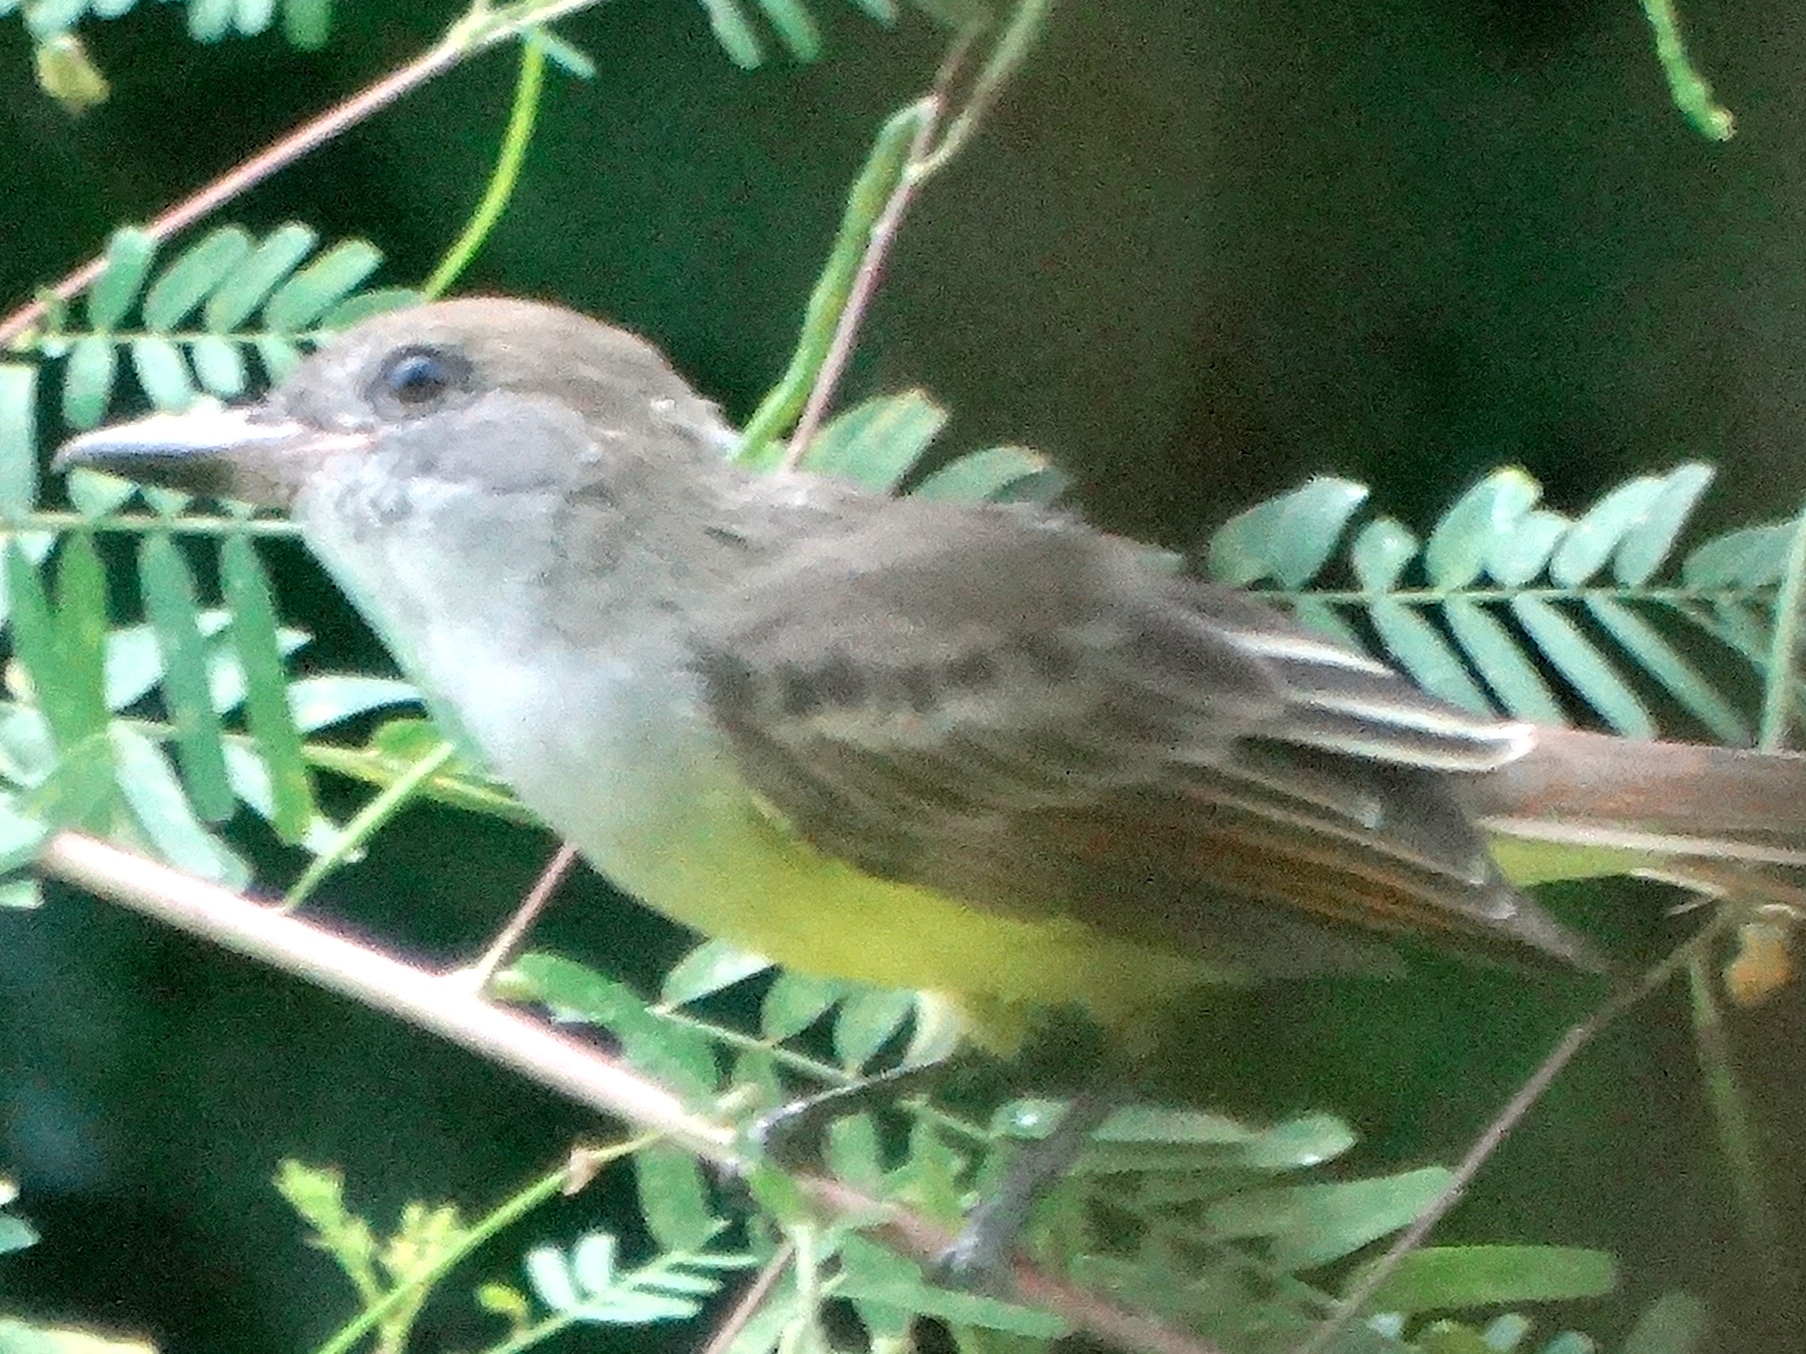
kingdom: Animalia
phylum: Chordata
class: Aves
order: Passeriformes
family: Tyrannidae
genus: Myiarchus
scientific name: Myiarchus tyrannulus
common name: Brown-crested flycatcher
